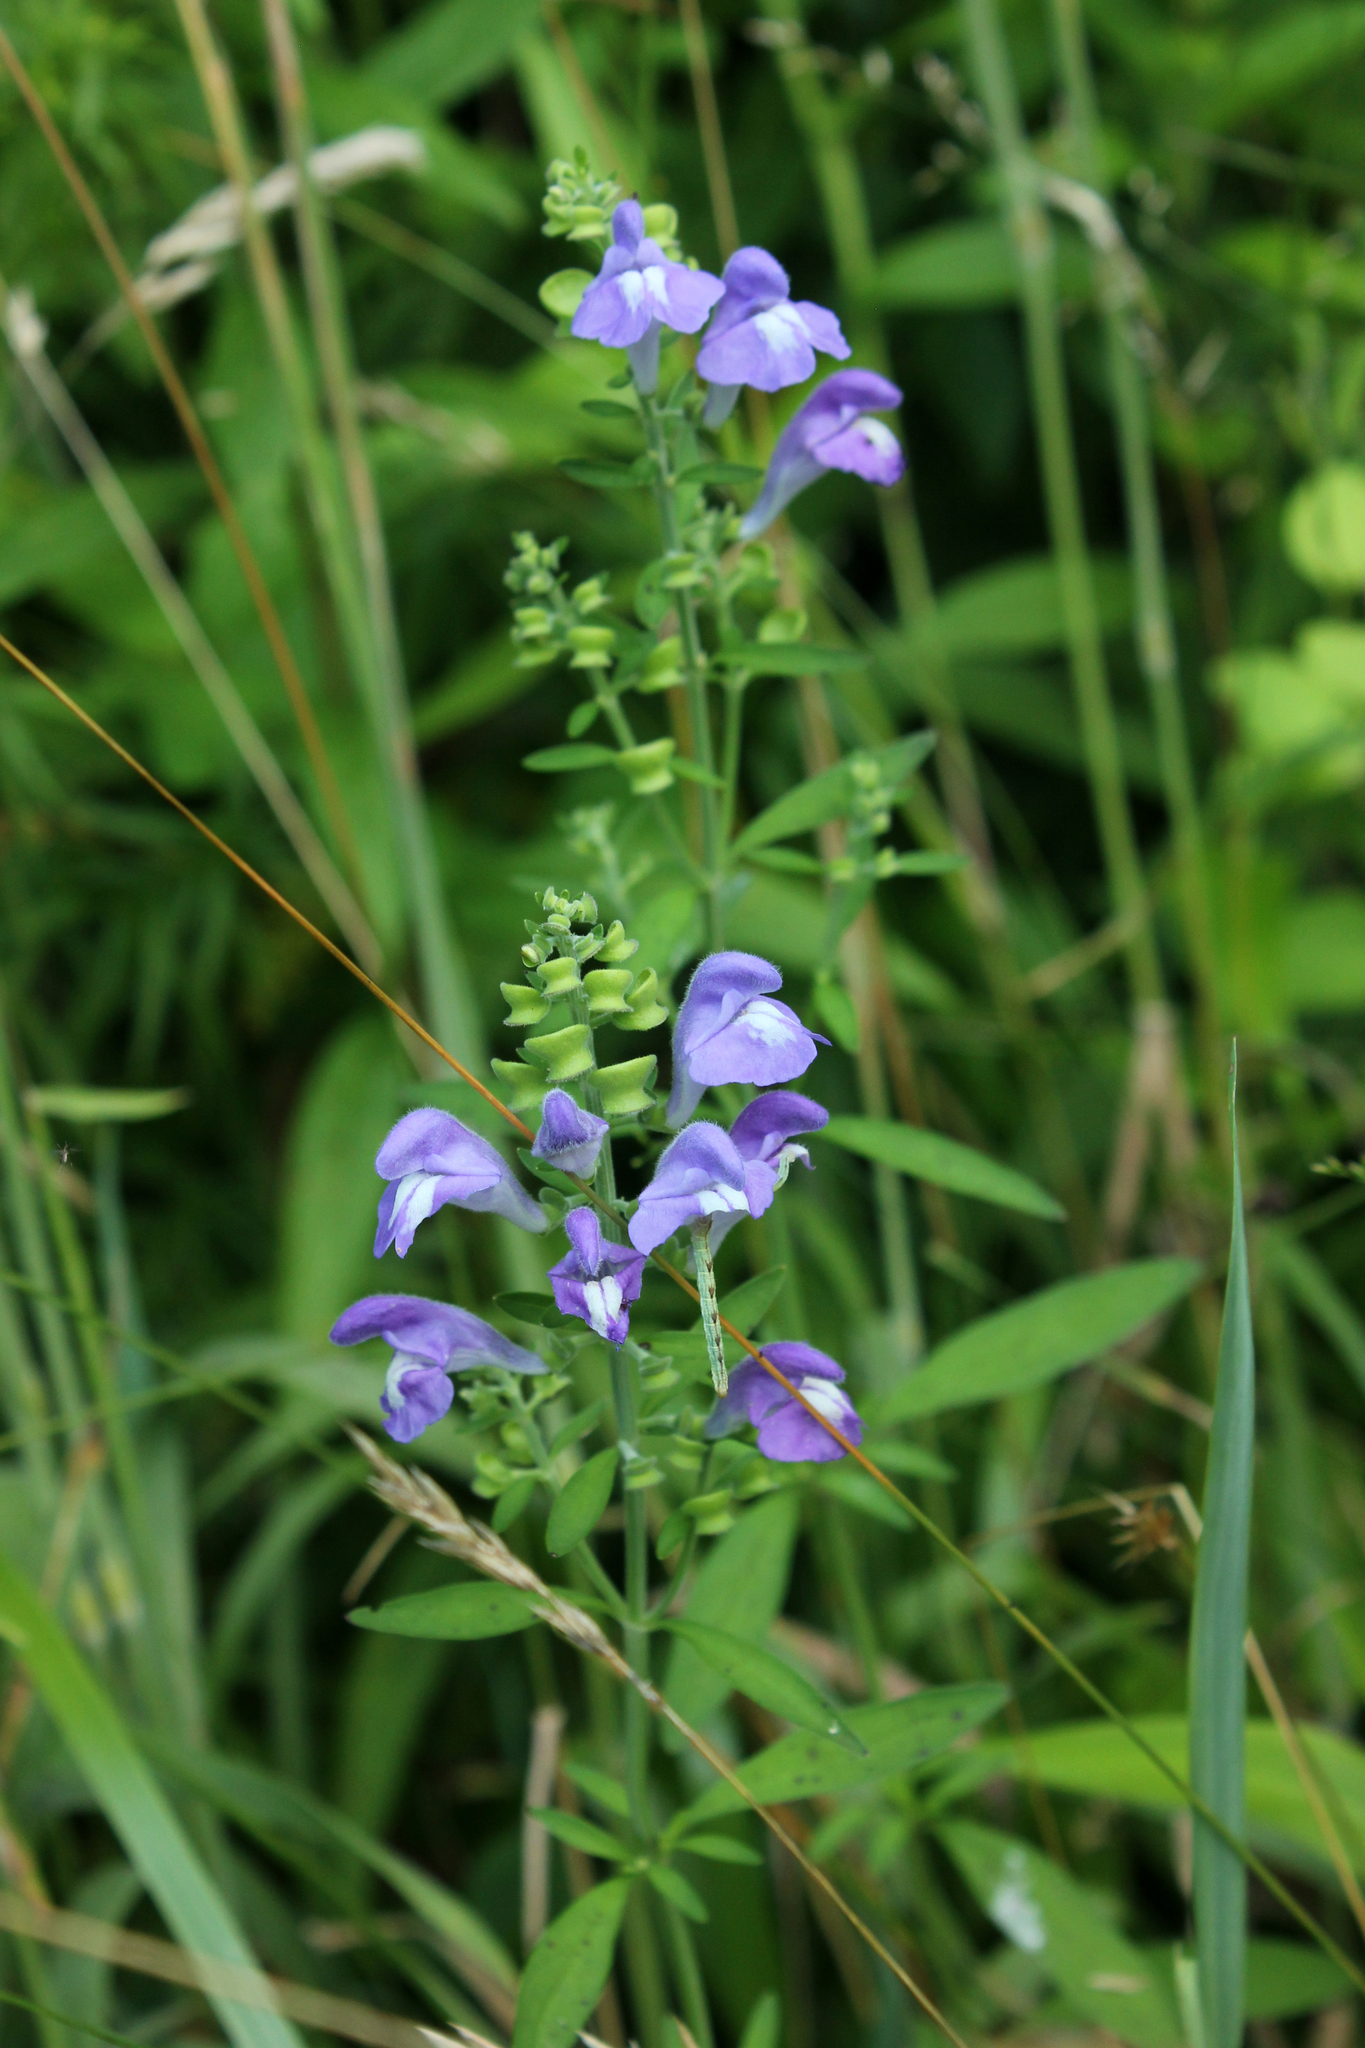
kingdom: Plantae
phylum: Tracheophyta
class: Magnoliopsida
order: Lamiales
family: Lamiaceae
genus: Scutellaria
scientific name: Scutellaria integrifolia
